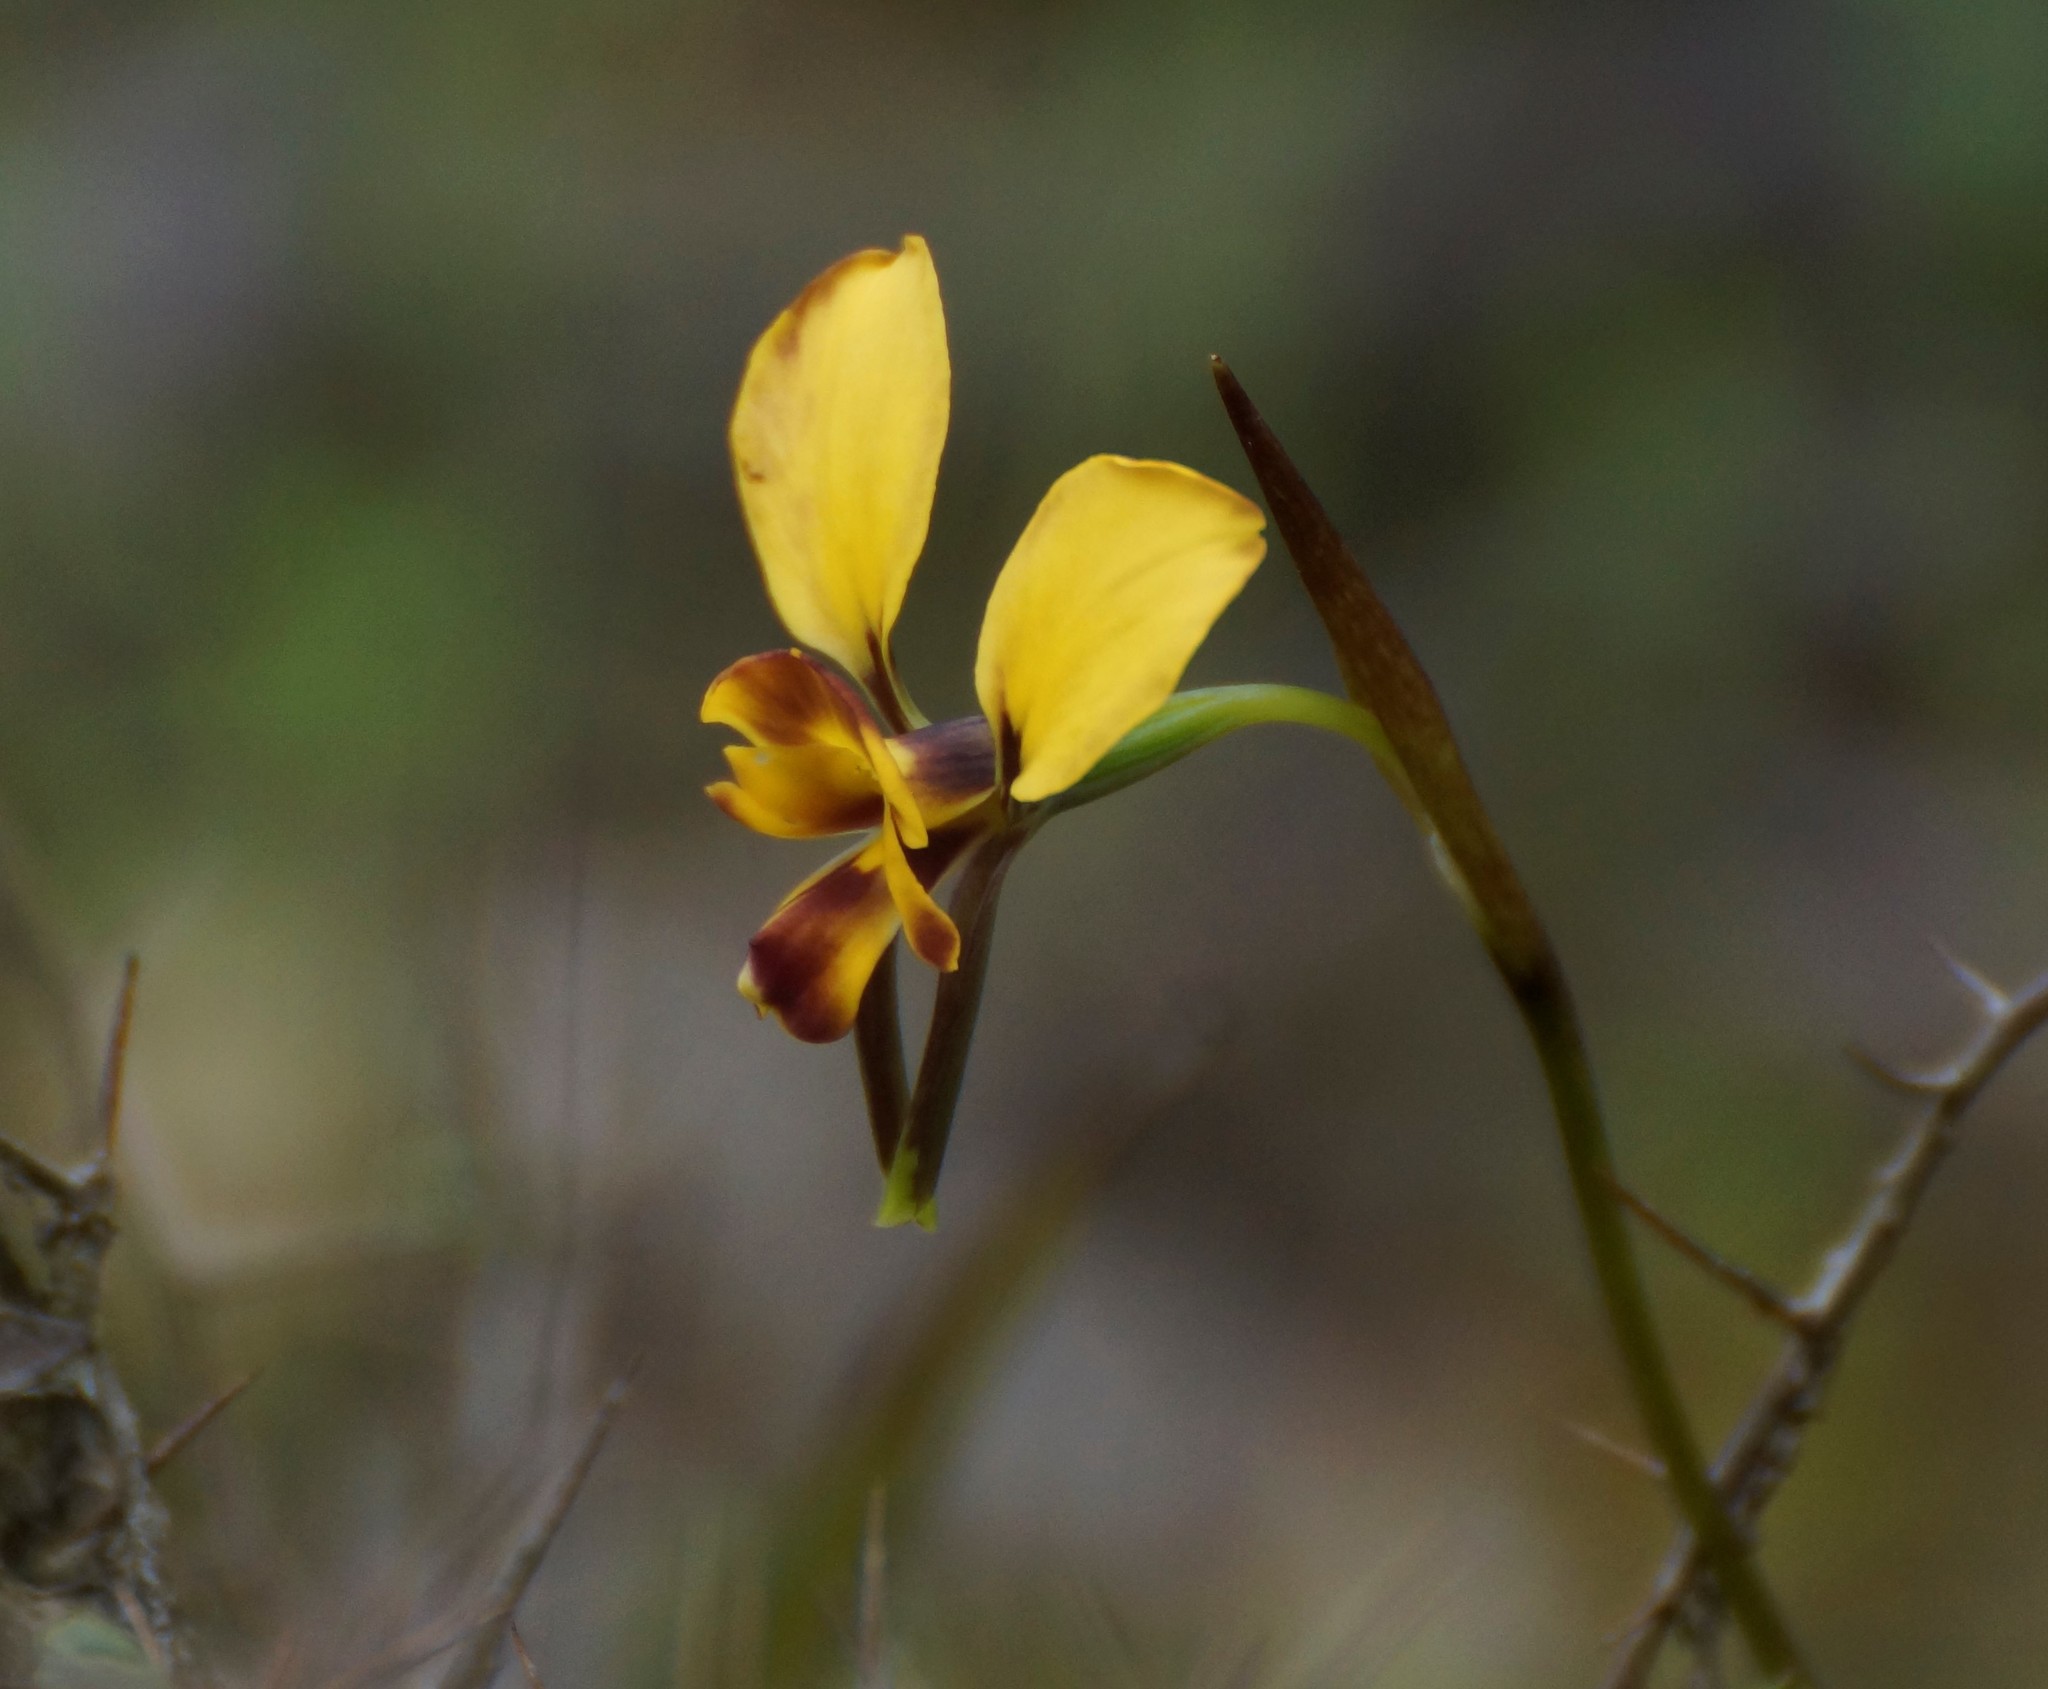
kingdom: Plantae
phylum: Tracheophyta
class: Liliopsida
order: Asparagales
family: Orchidaceae
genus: Diuris
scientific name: Diuris orientis
